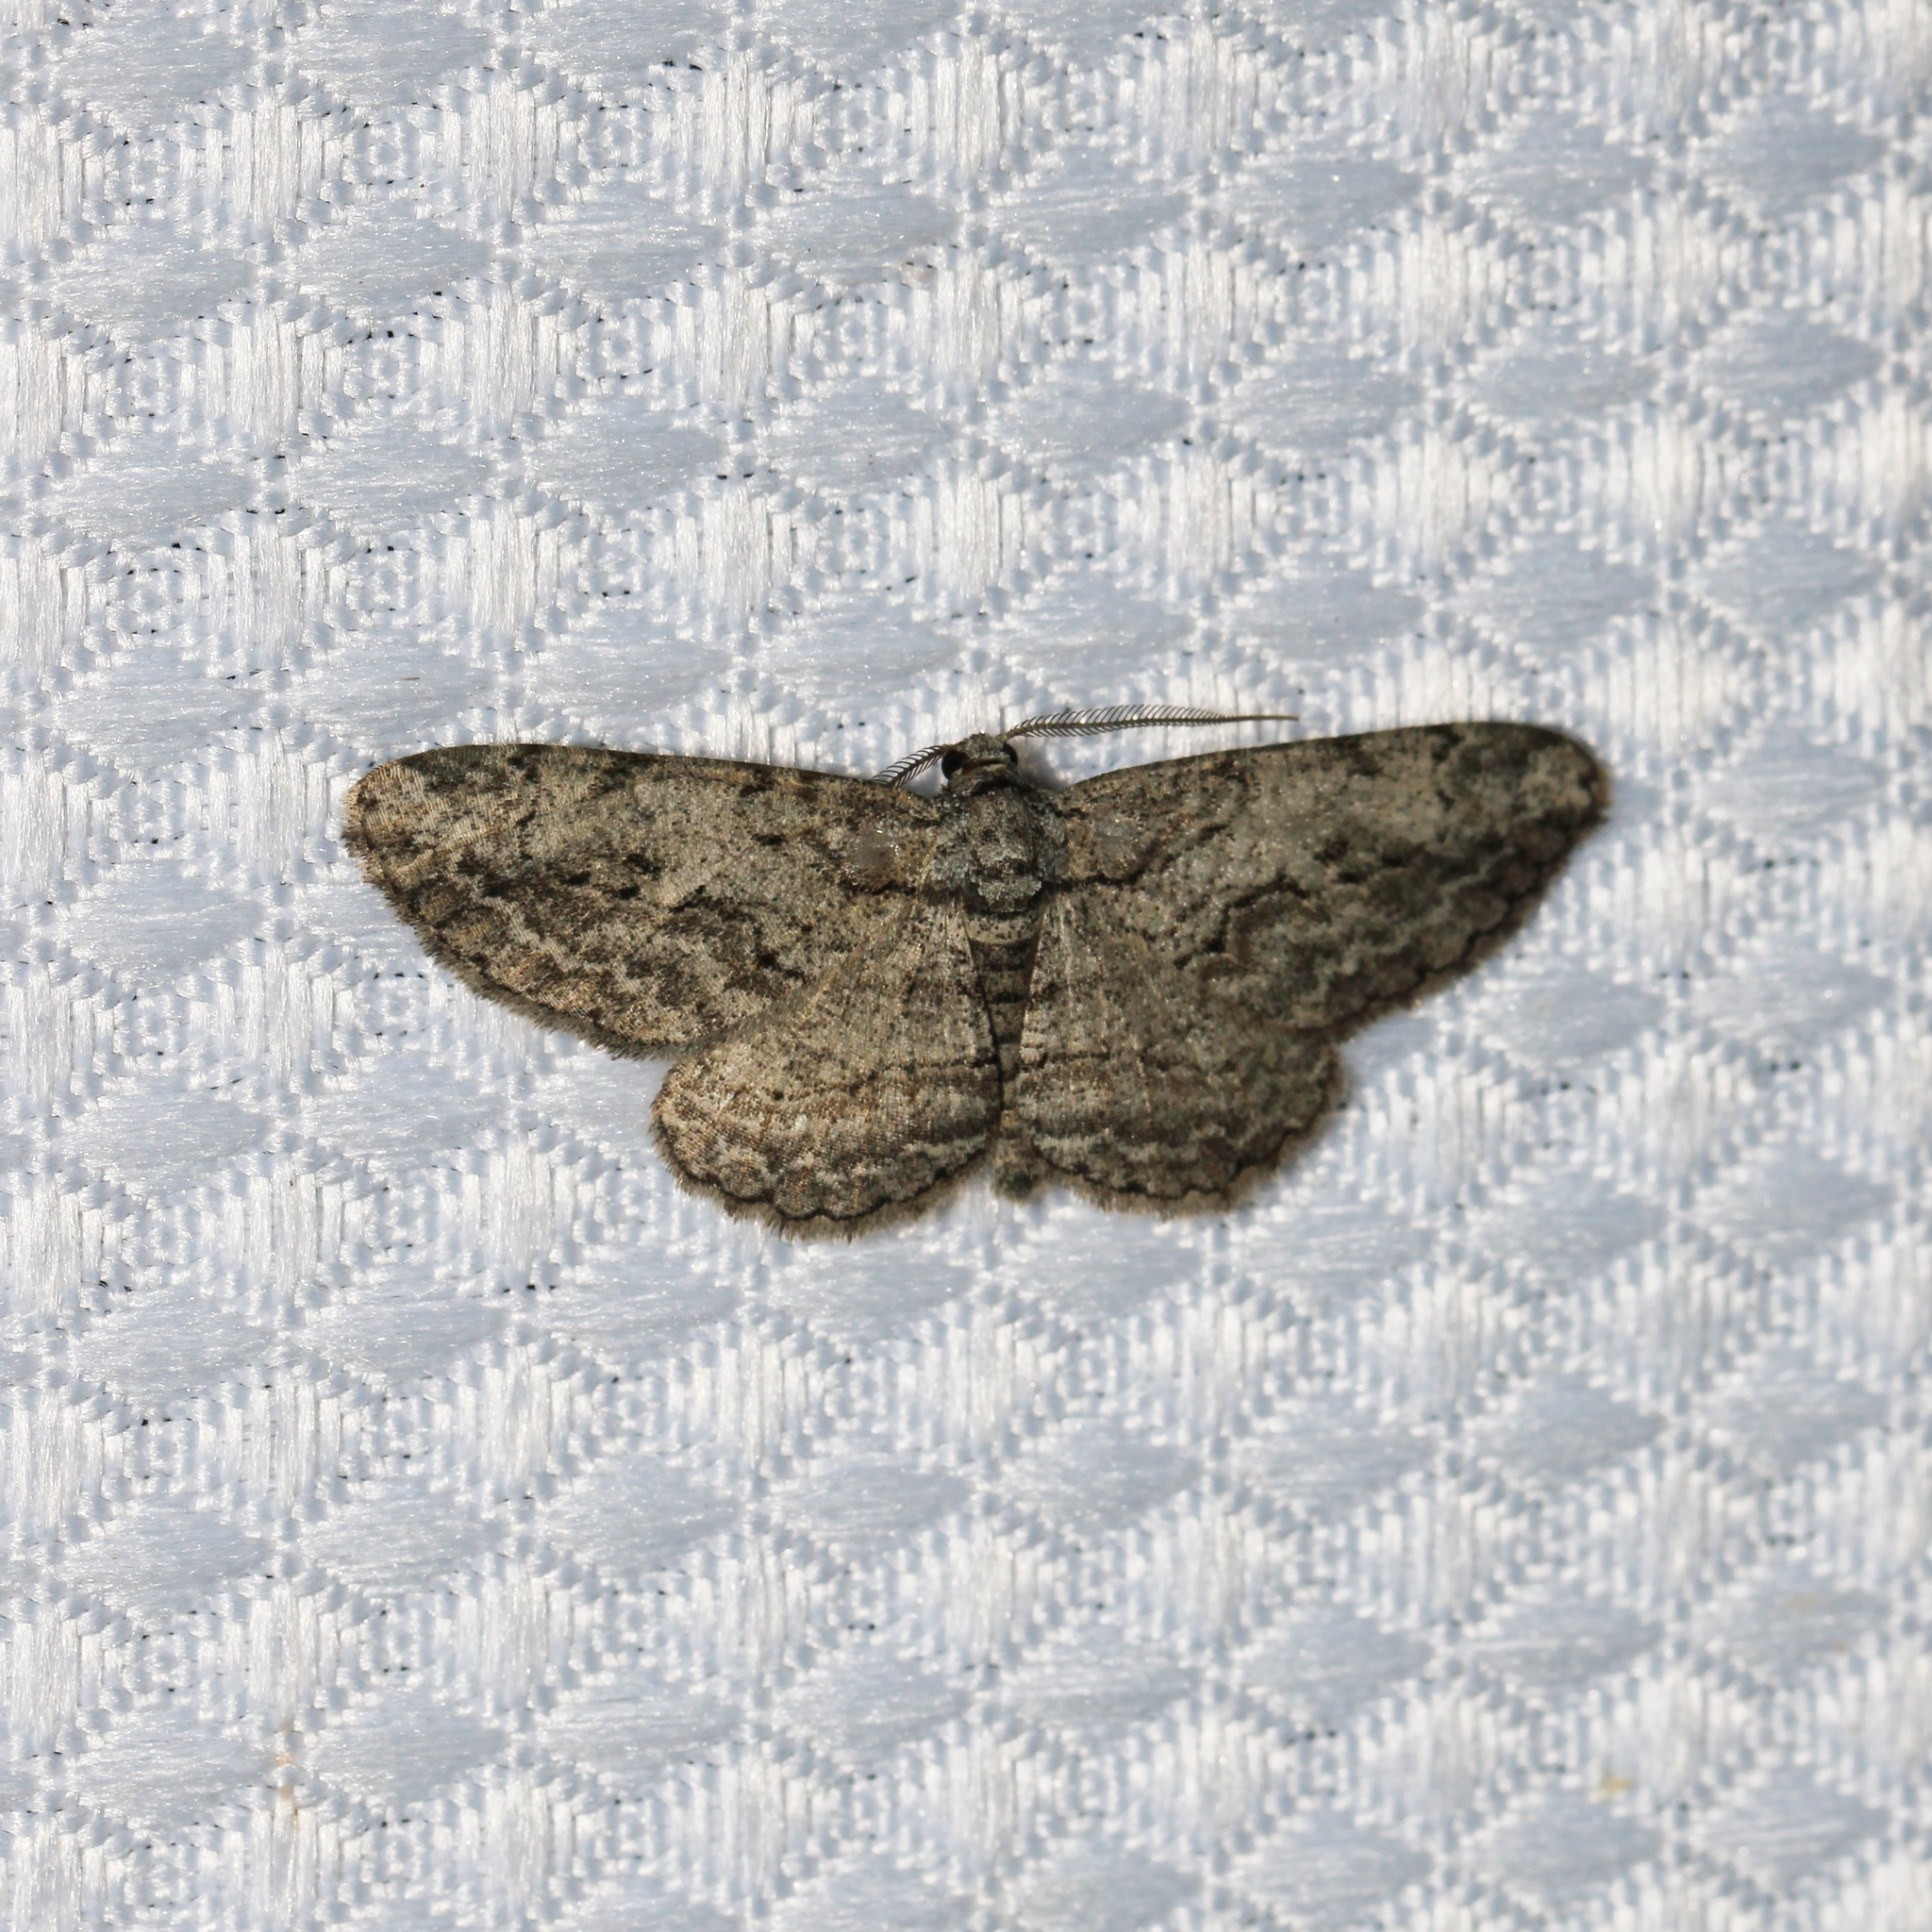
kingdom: Animalia
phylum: Arthropoda
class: Insecta
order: Lepidoptera
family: Geometridae
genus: Anavitrinella
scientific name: Anavitrinella pampinaria
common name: Common gray
